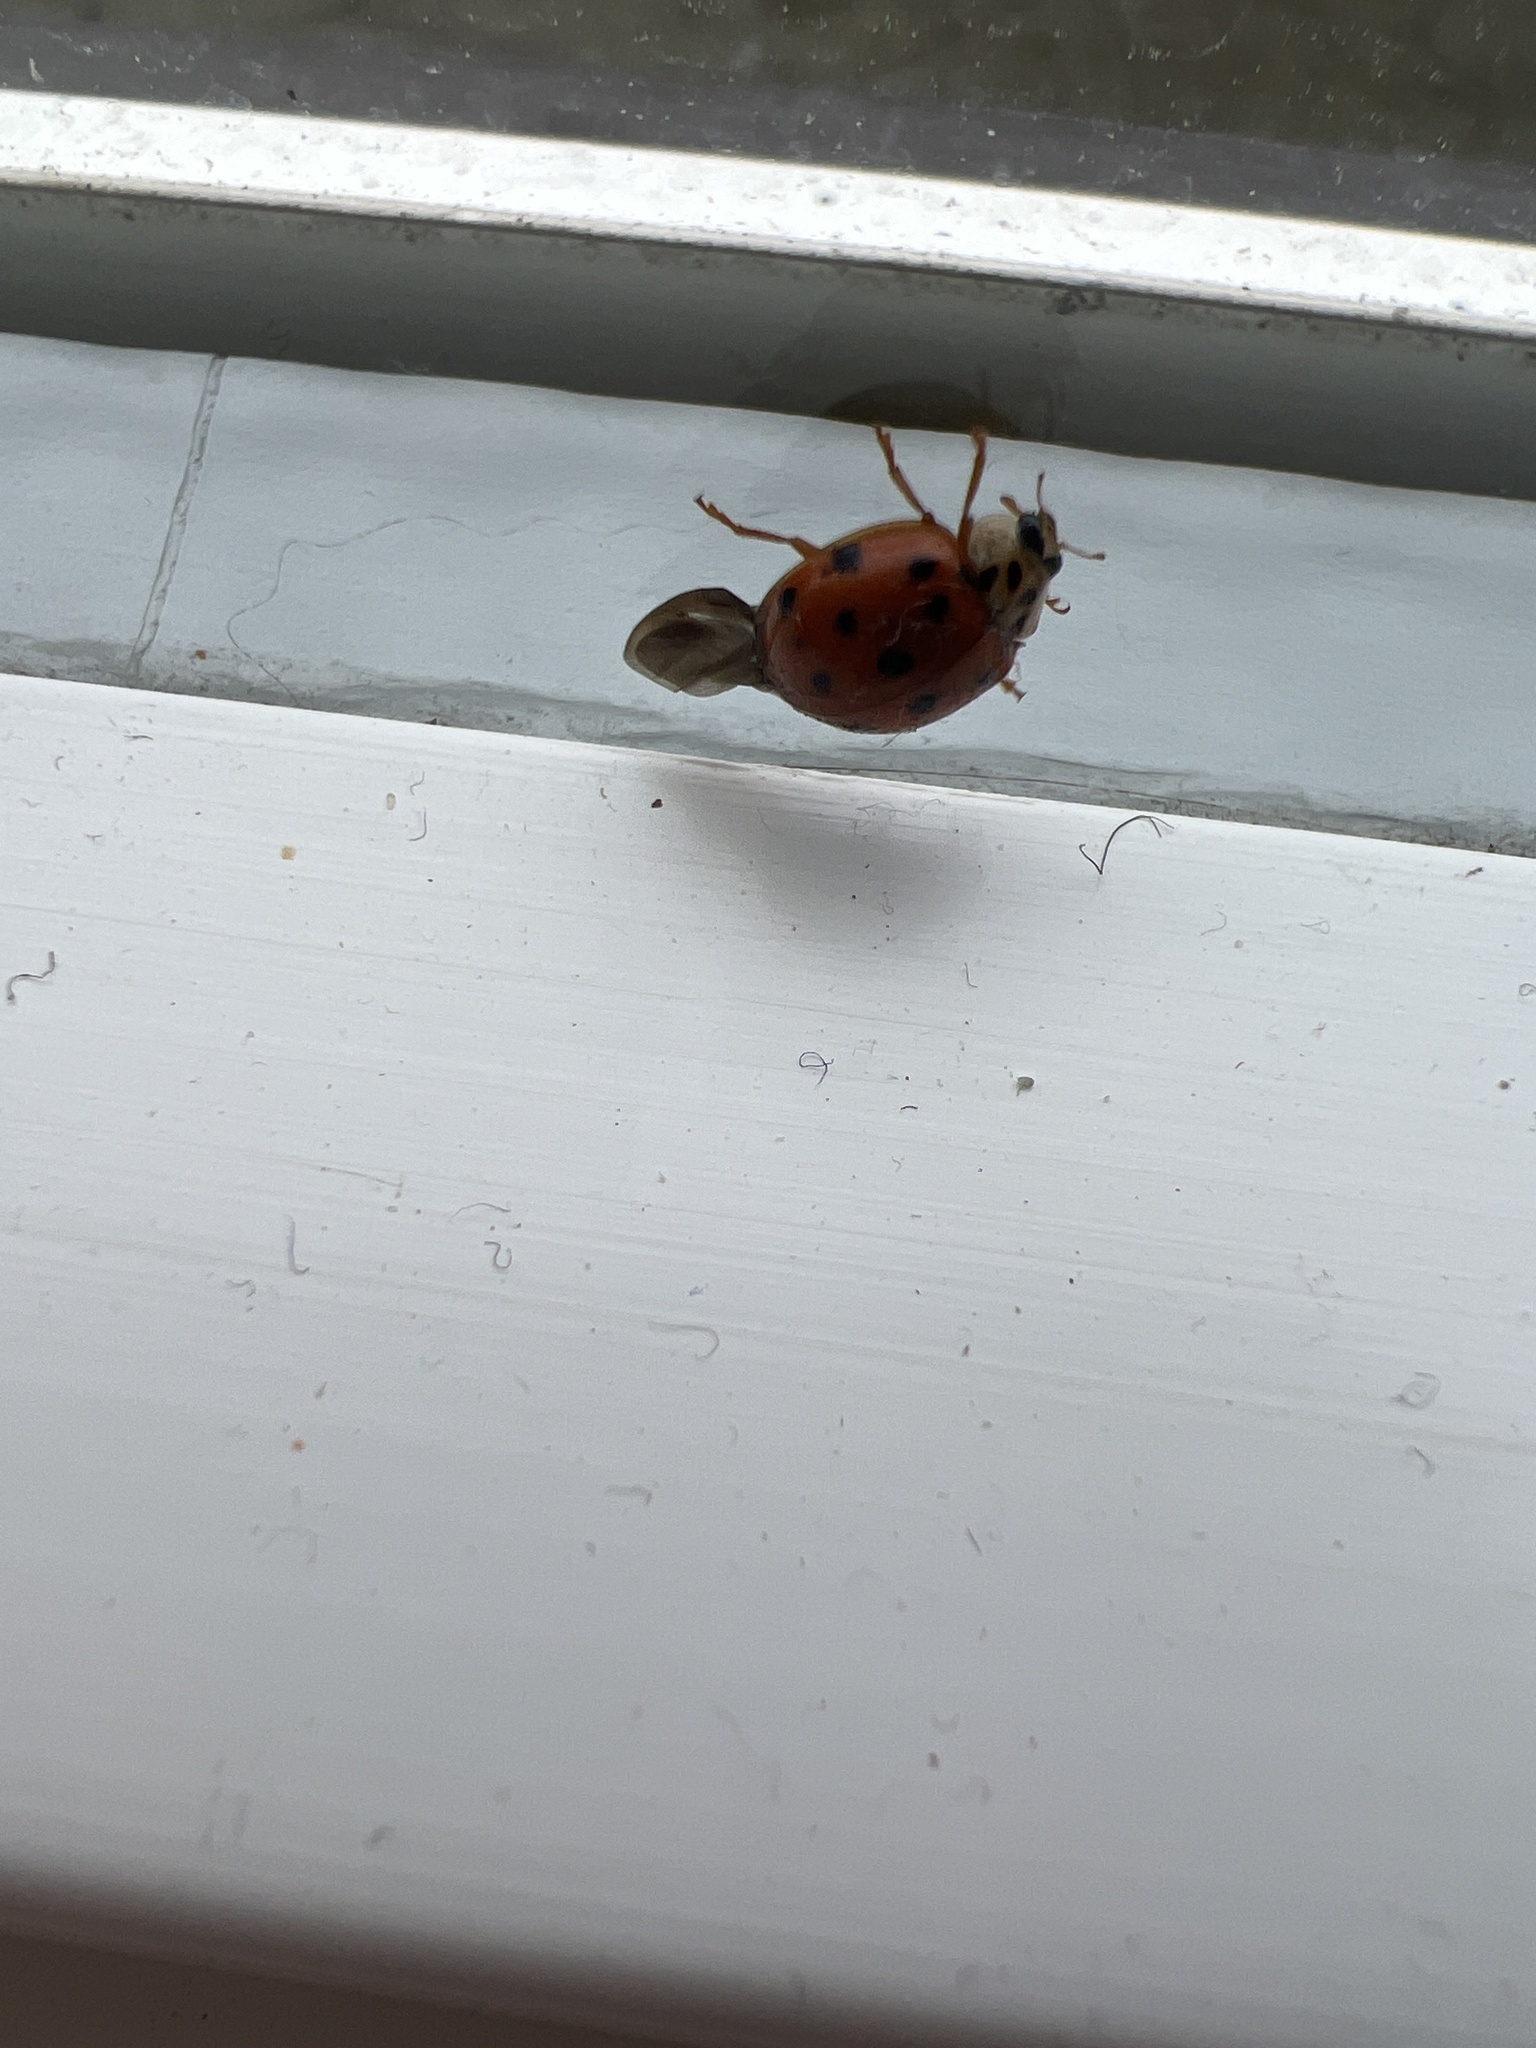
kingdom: Animalia
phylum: Arthropoda
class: Insecta
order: Coleoptera
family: Coccinellidae
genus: Harmonia
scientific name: Harmonia axyridis
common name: Harlequin ladybird
